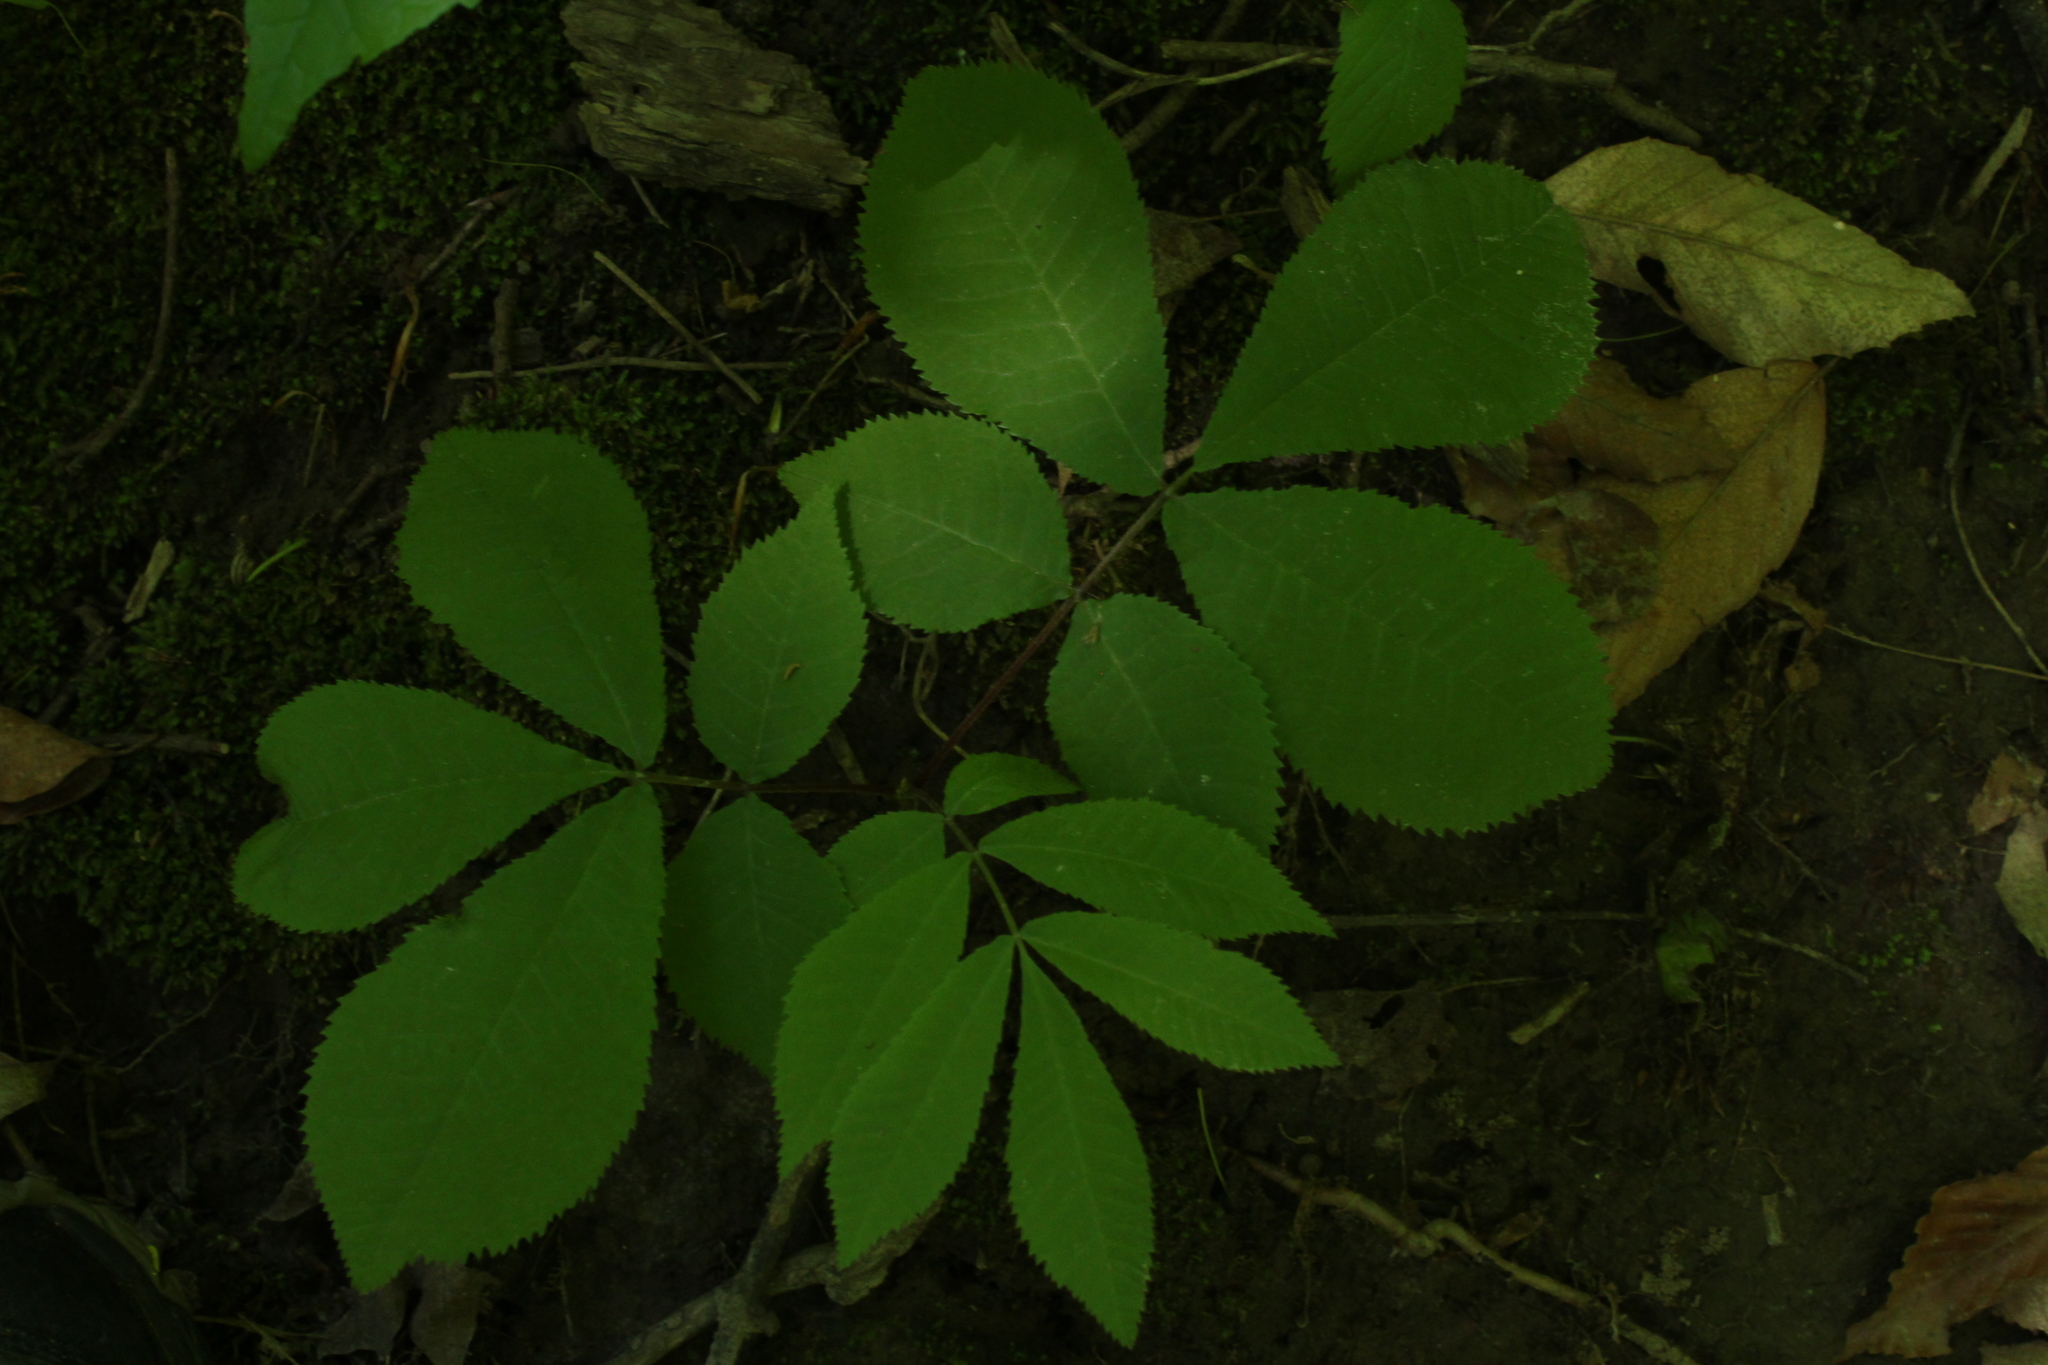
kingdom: Plantae
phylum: Tracheophyta
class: Magnoliopsida
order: Fagales
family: Juglandaceae
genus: Carya
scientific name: Carya cordiformis
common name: Bitternut hickory
